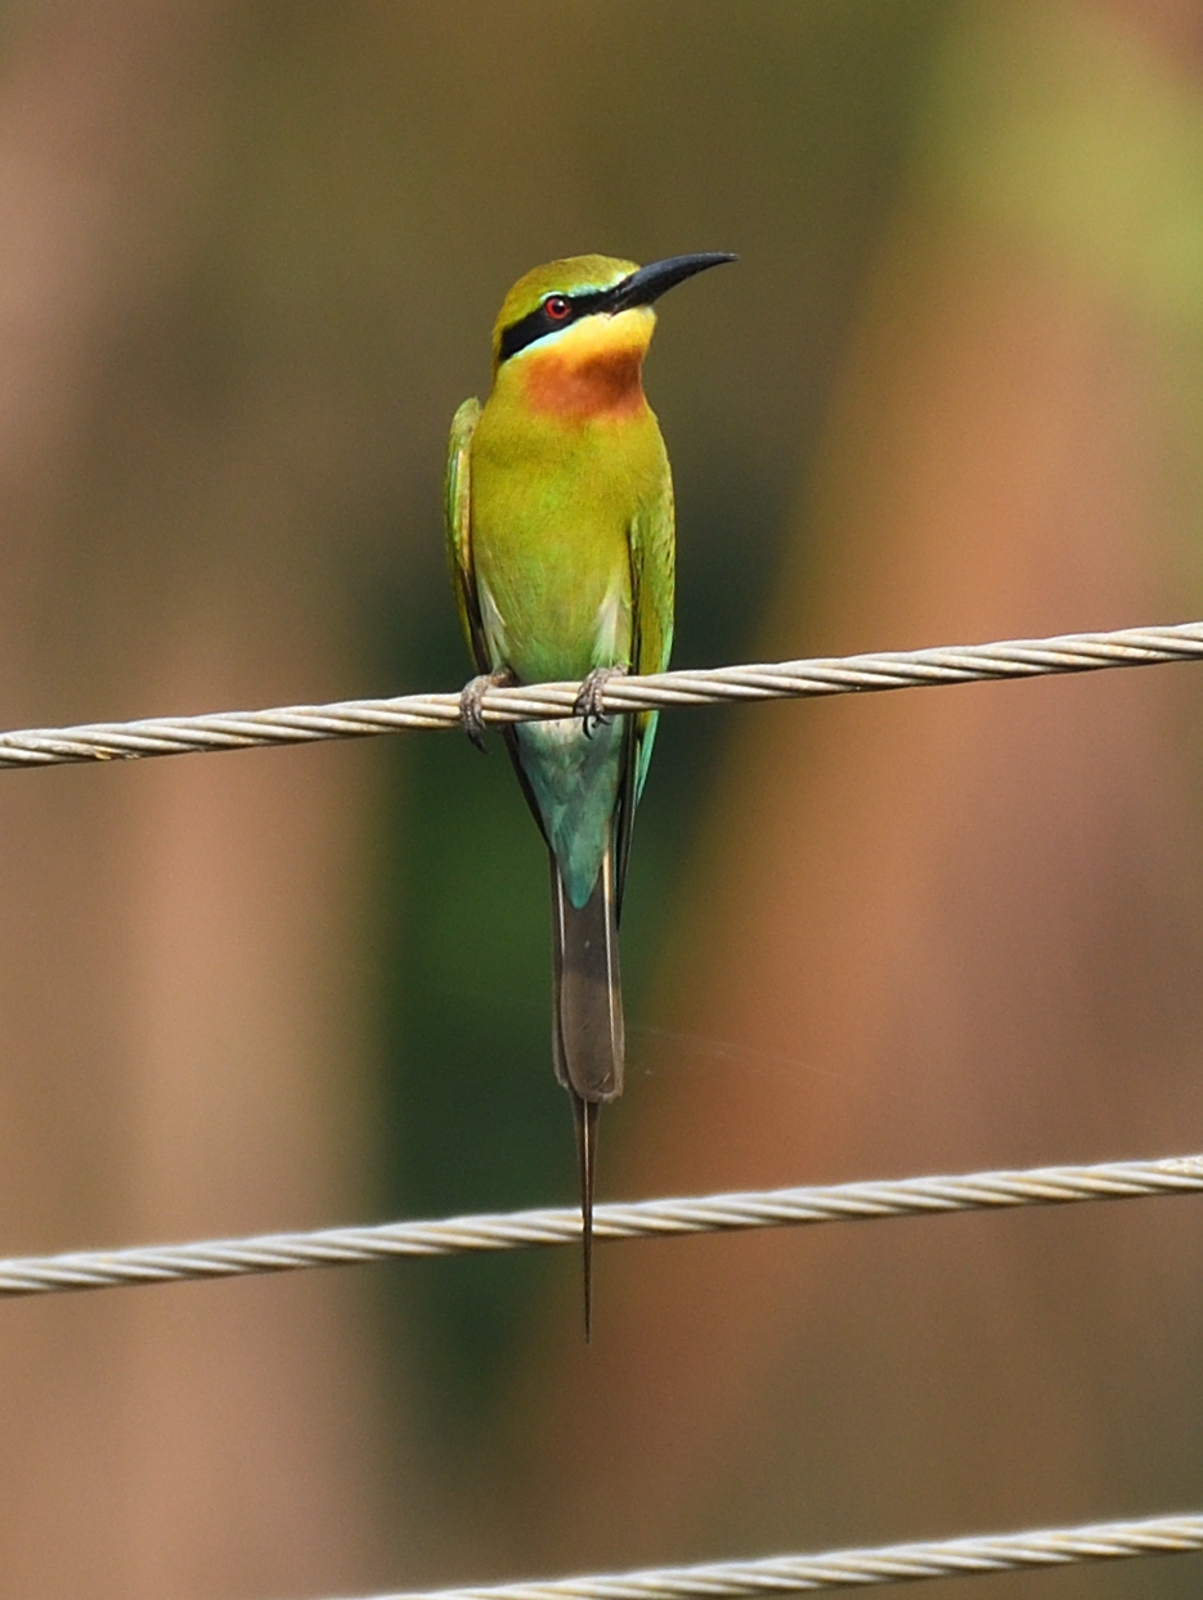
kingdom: Animalia
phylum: Chordata
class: Aves
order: Coraciiformes
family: Meropidae
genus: Merops
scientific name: Merops philippinus
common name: Blue-tailed bee-eater
